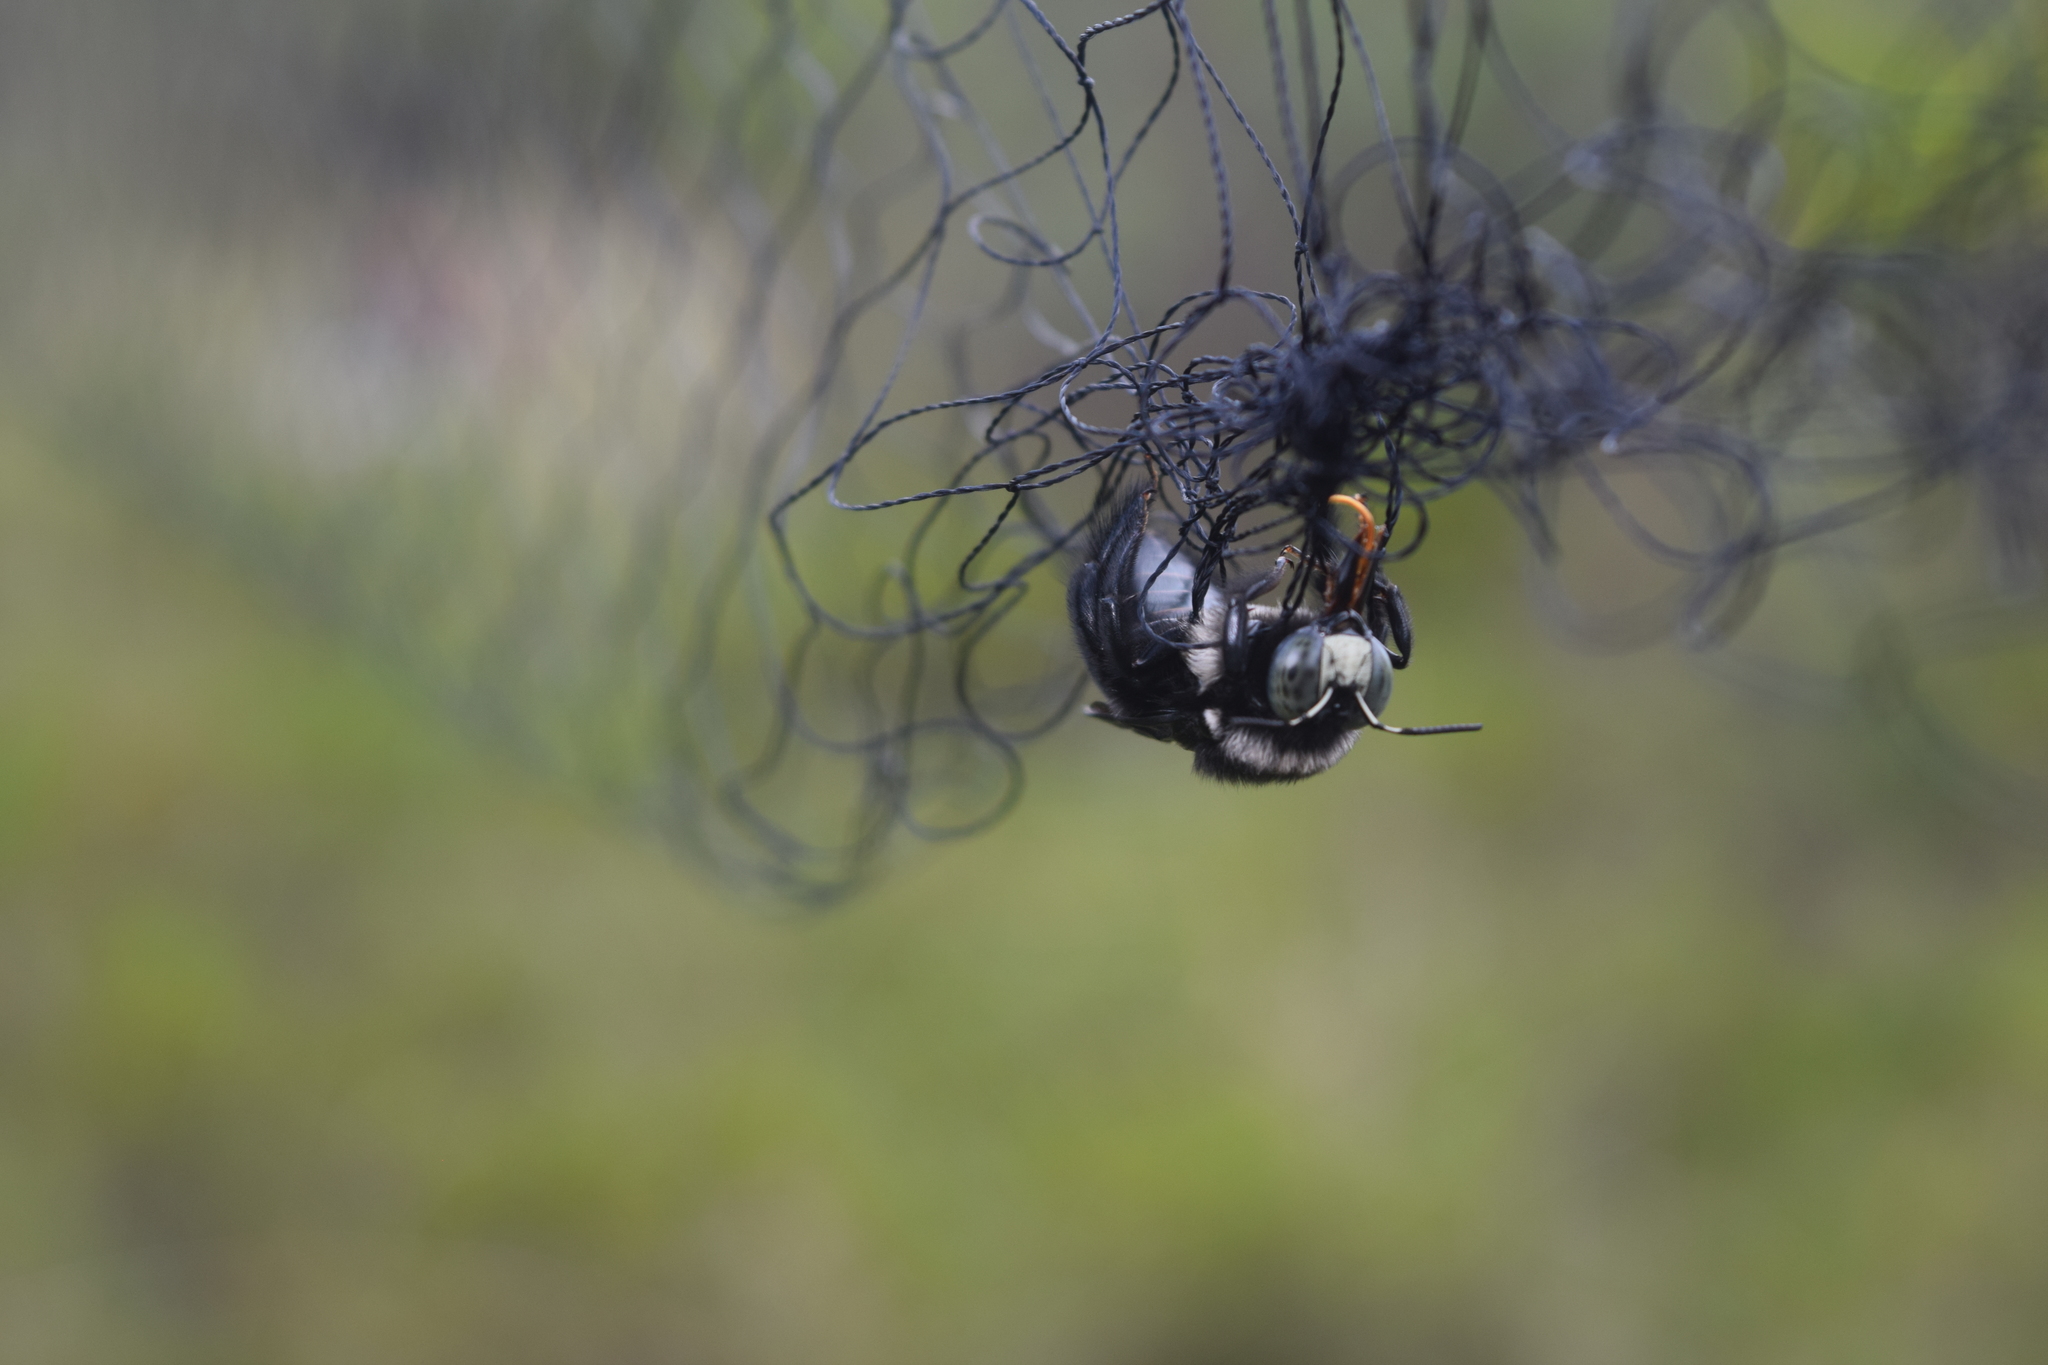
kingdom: Animalia
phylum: Arthropoda
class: Insecta
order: Hymenoptera
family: Apidae
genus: Xylocopa
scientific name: Xylocopa viridigastra
